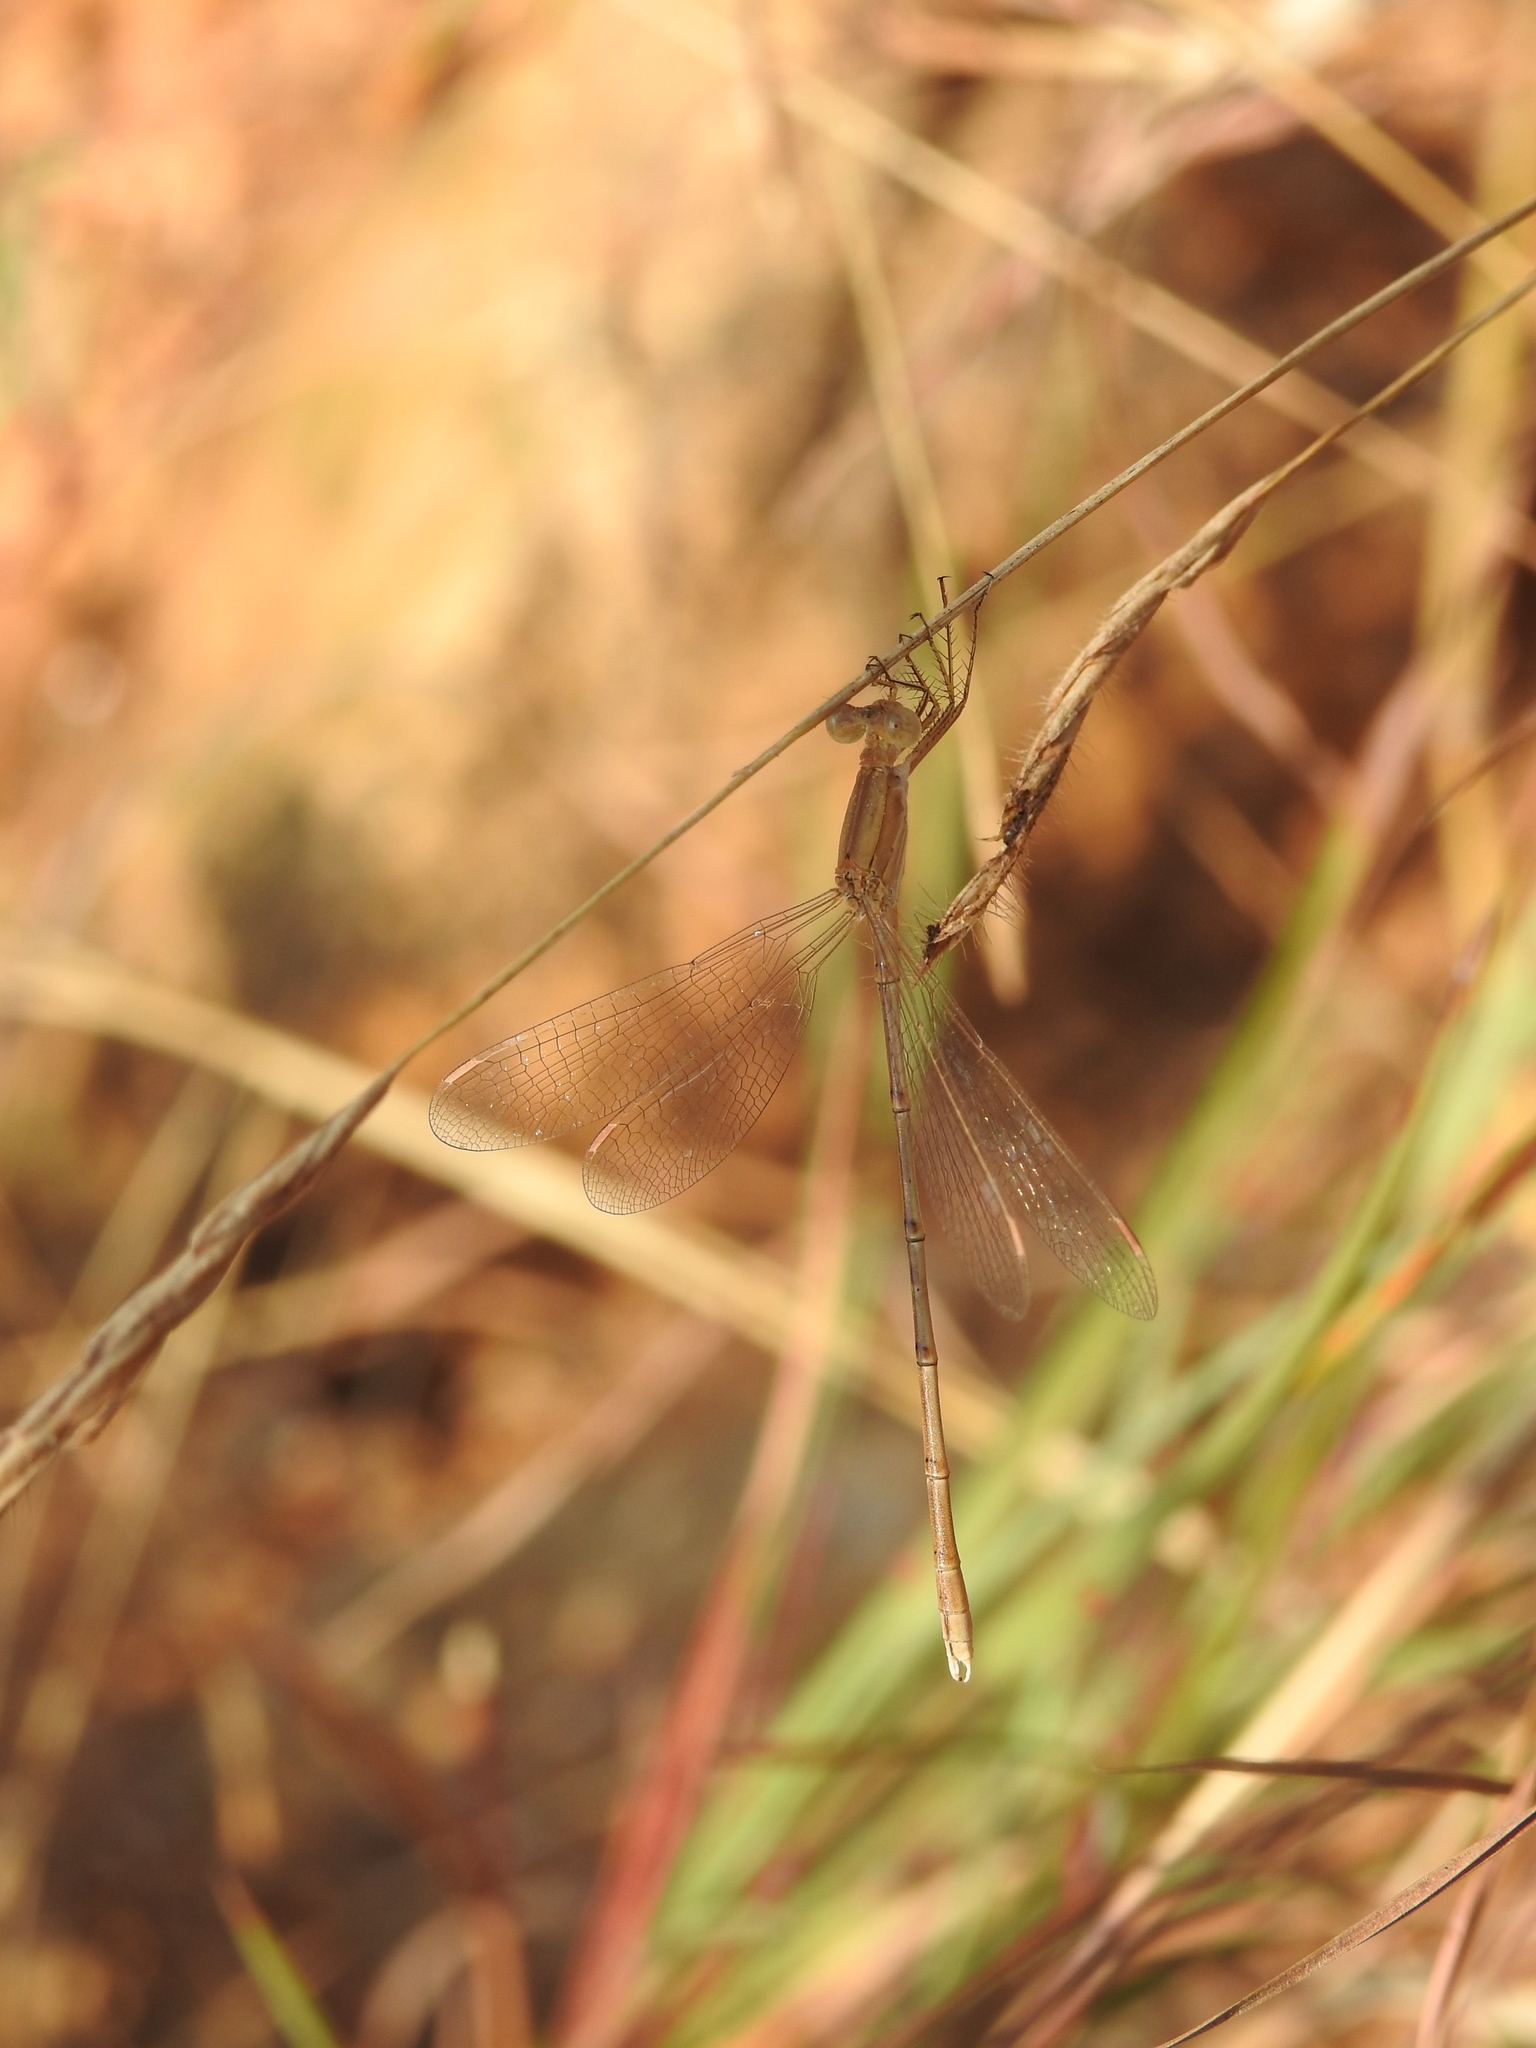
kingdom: Animalia
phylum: Arthropoda
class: Insecta
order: Odonata
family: Lestidae
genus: Lestes
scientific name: Lestes concinnus
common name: Dusky spreadwing
